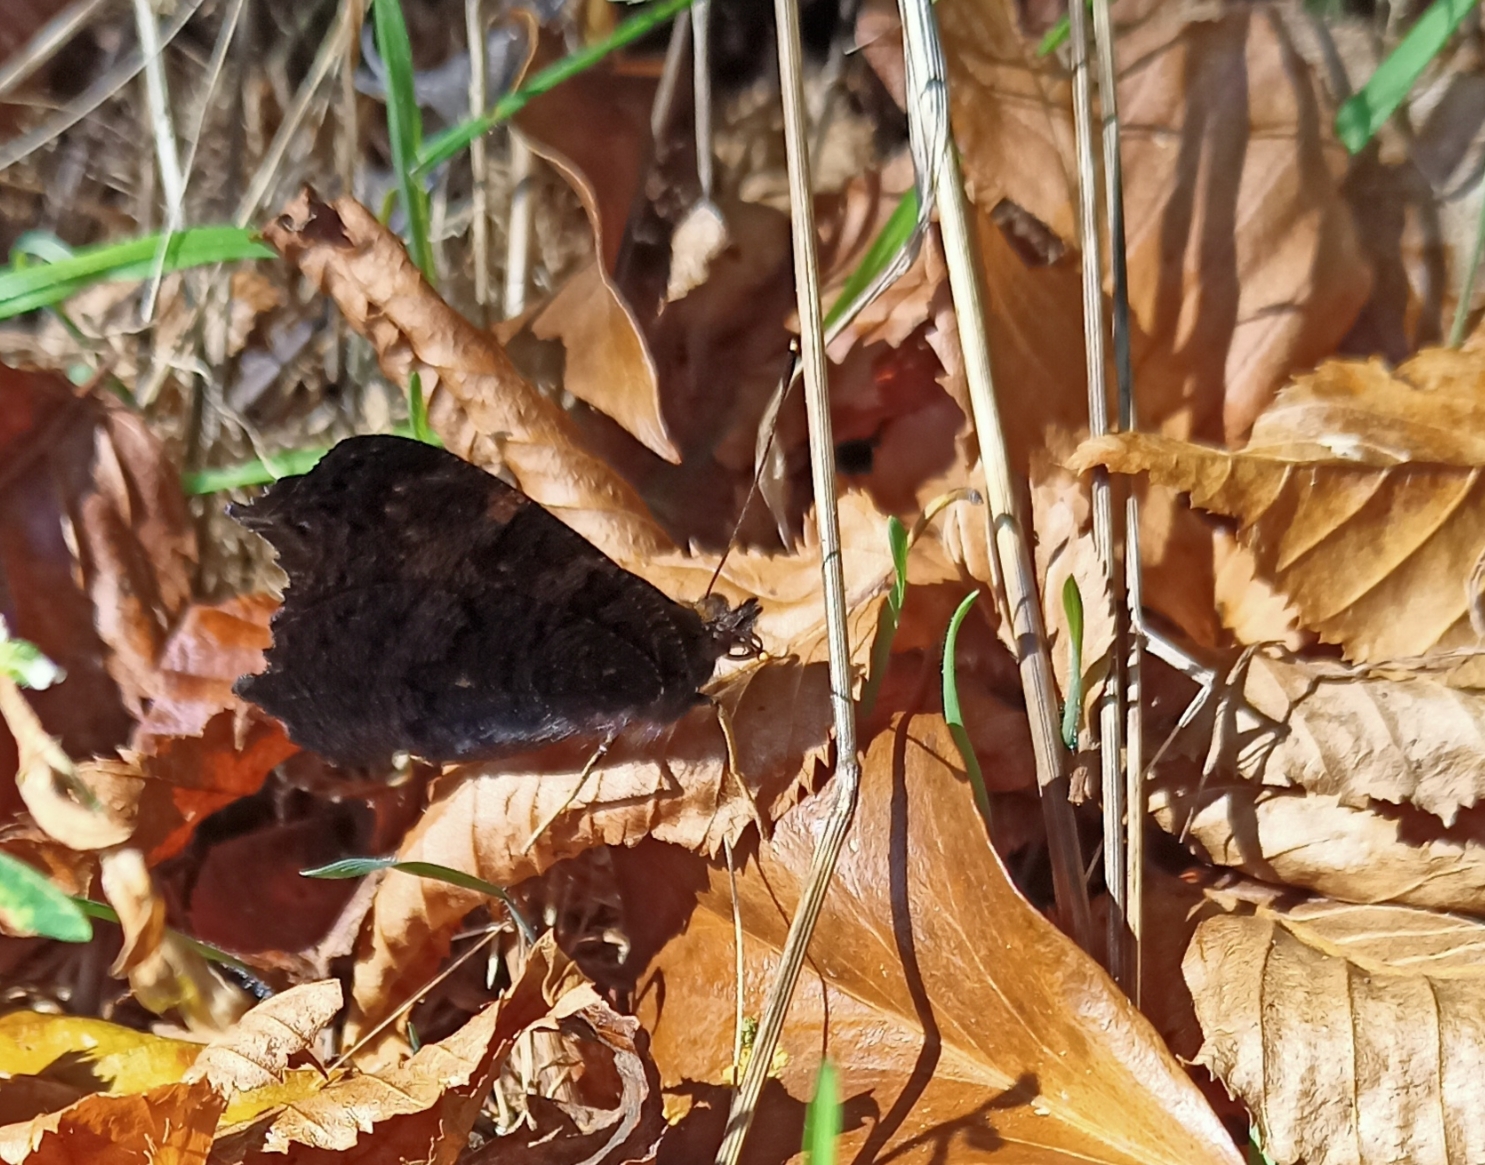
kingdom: Animalia
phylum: Arthropoda
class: Insecta
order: Lepidoptera
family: Nymphalidae
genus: Aglais
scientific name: Aglais io
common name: Peacock
